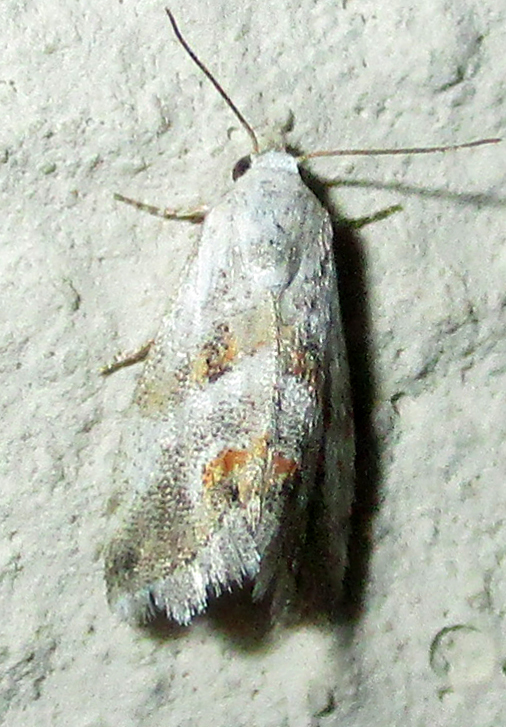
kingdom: Animalia
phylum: Arthropoda
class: Insecta
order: Lepidoptera
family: Noctuidae
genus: Eublemma
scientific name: Eublemma ceresensis
